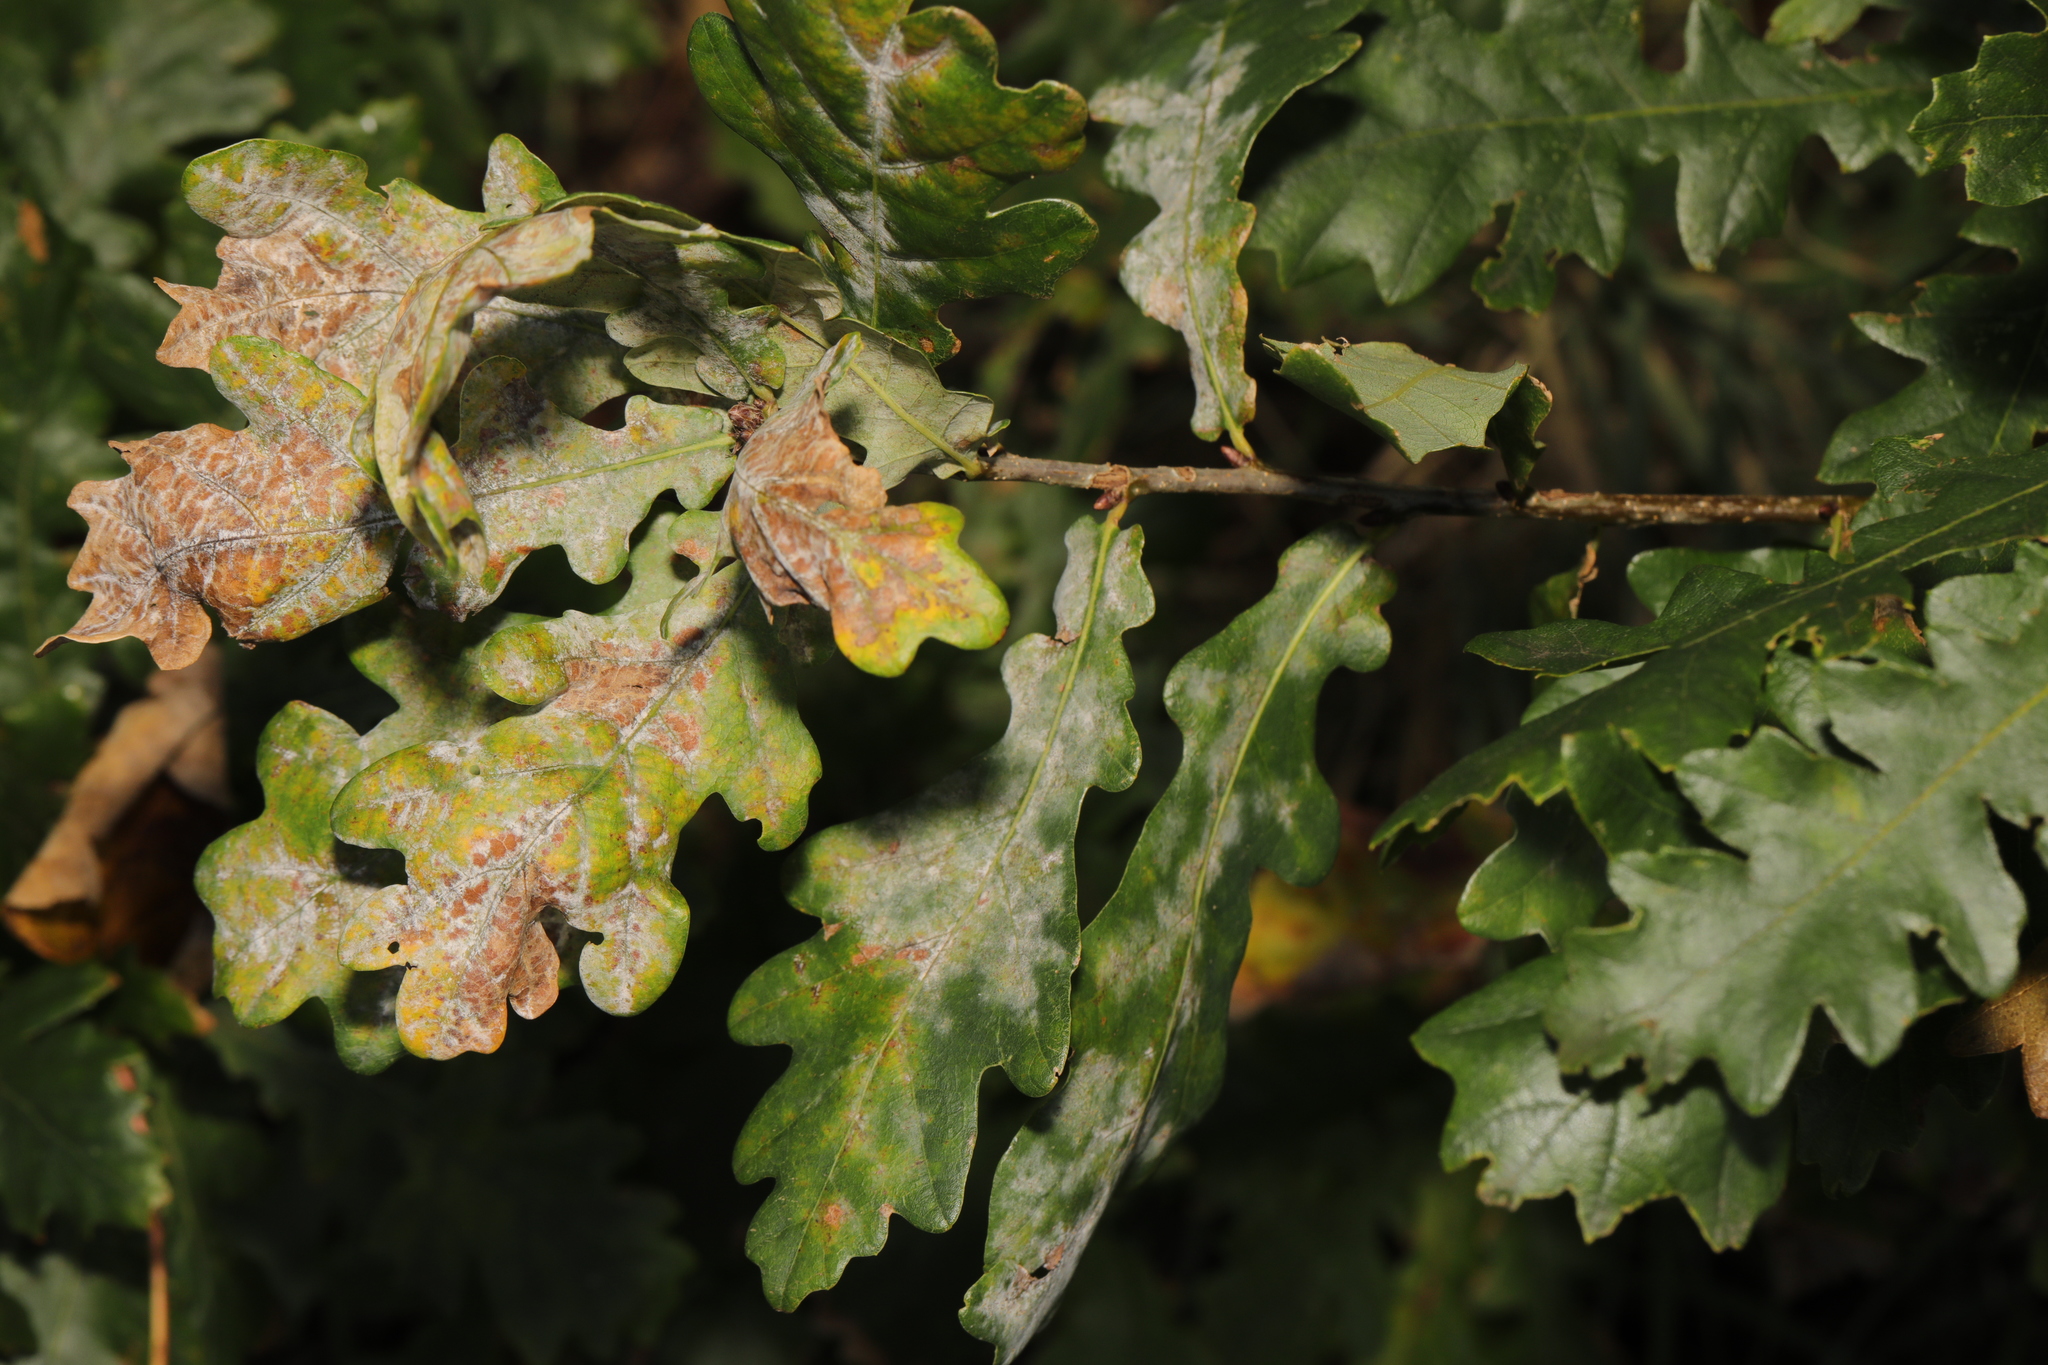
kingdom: Fungi
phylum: Ascomycota
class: Leotiomycetes
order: Helotiales
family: Erysiphaceae
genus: Erysiphe
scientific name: Erysiphe alphitoides
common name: Oak mildew
